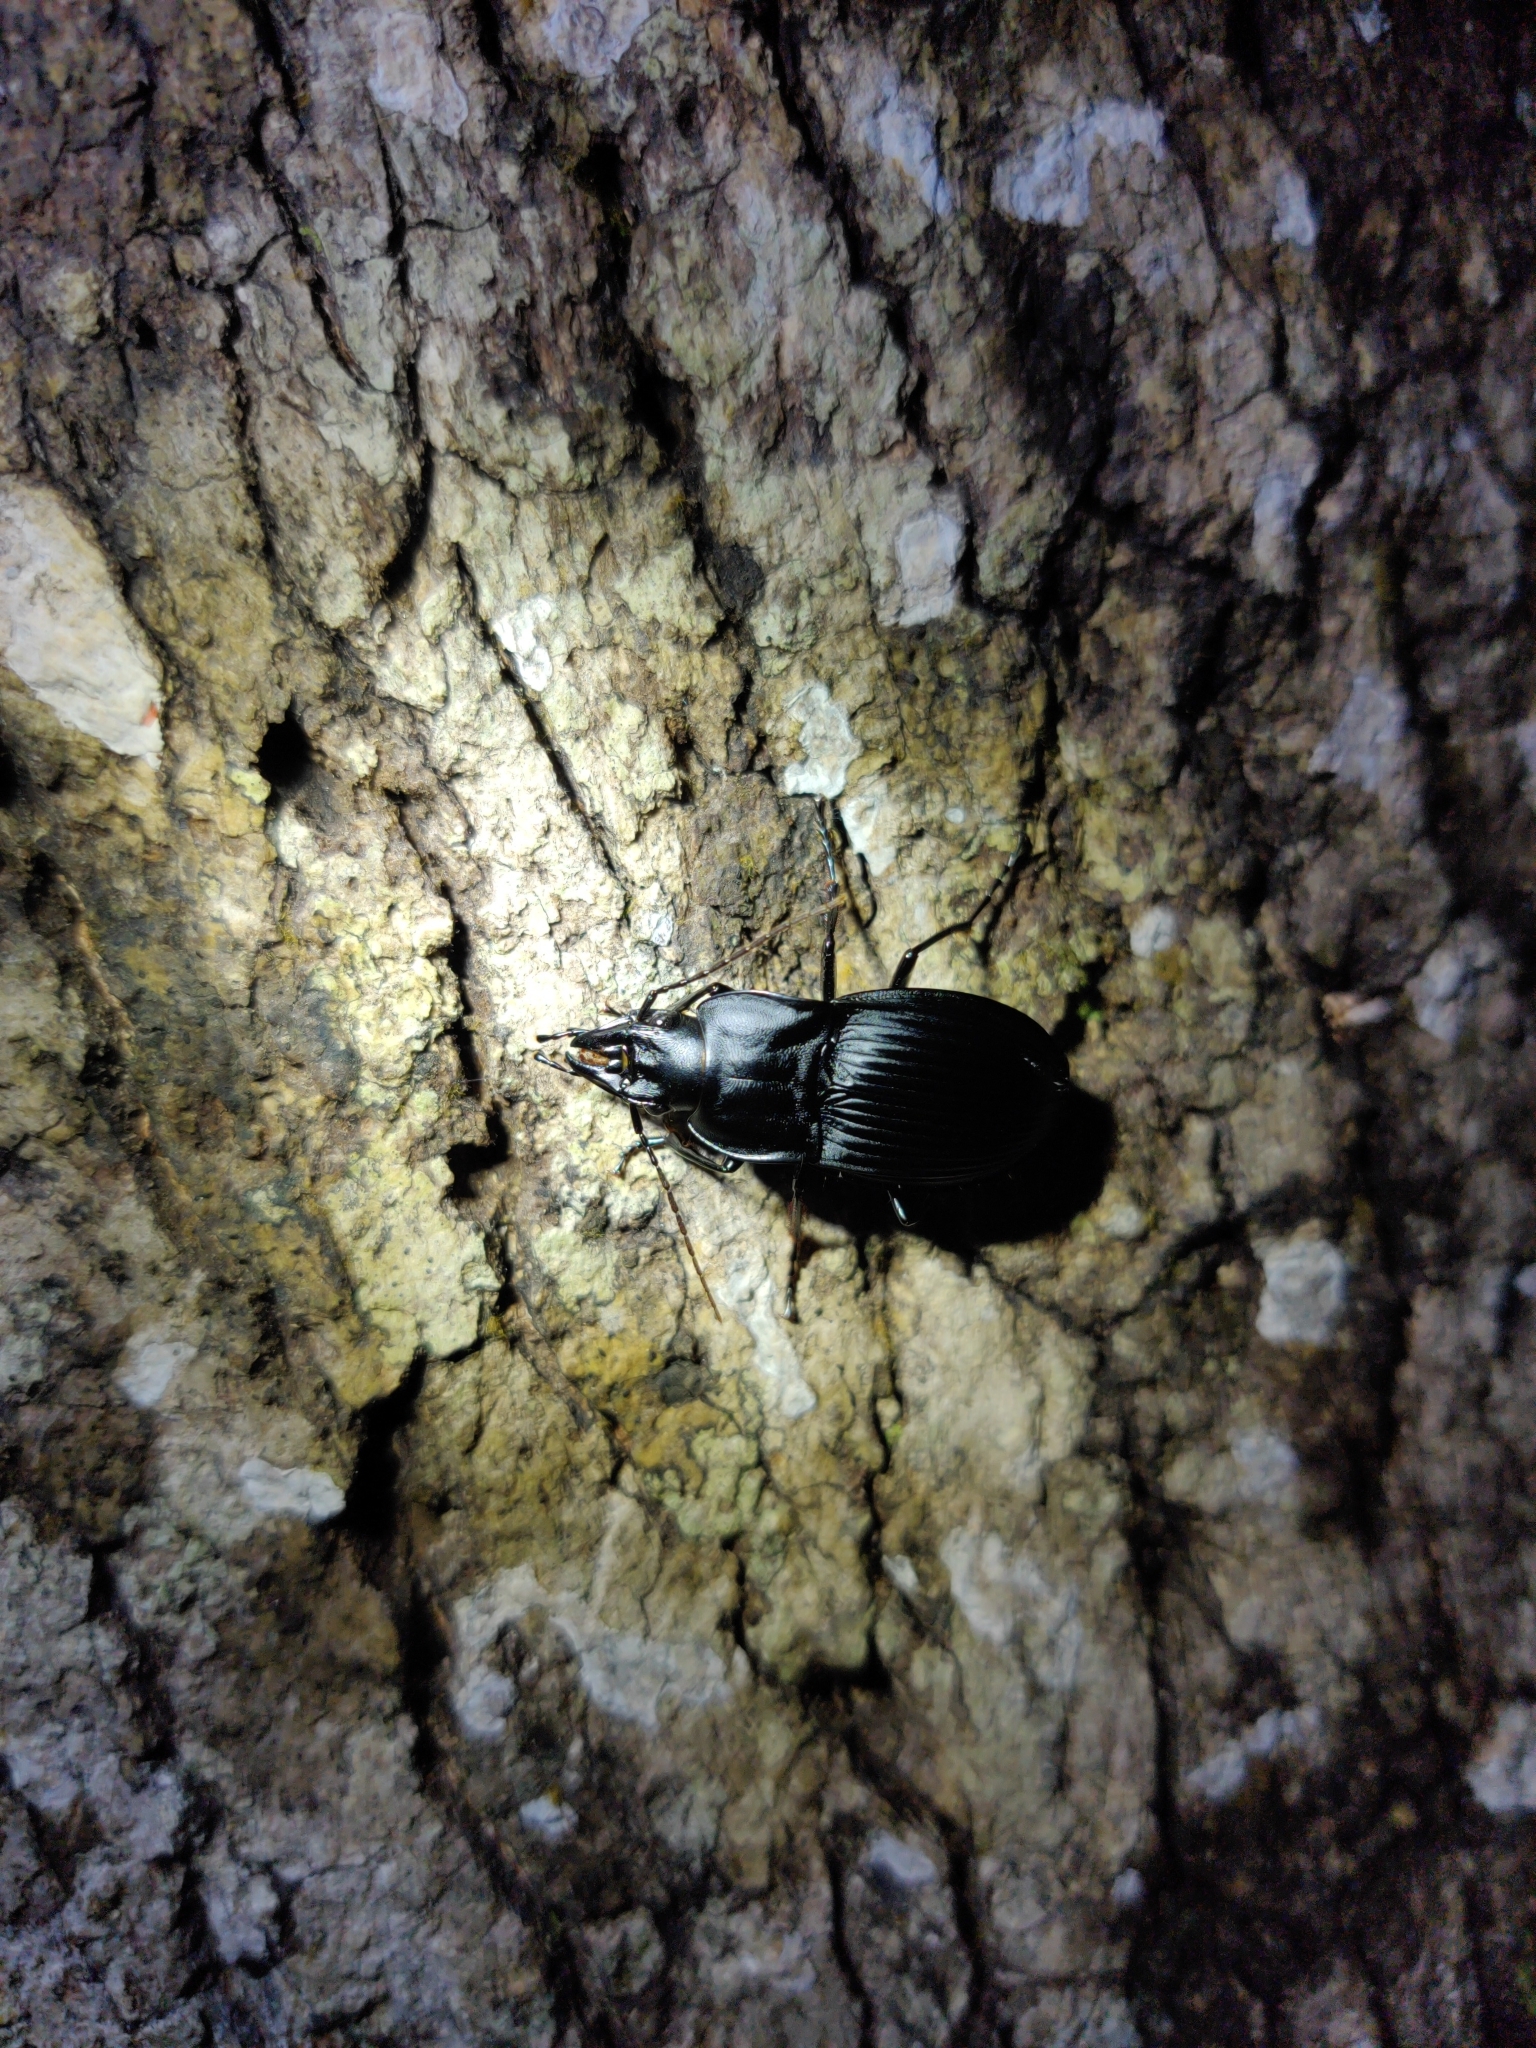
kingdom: Animalia
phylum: Arthropoda
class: Insecta
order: Coleoptera
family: Carabidae
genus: Dicaelus
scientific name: Dicaelus dilatatus
